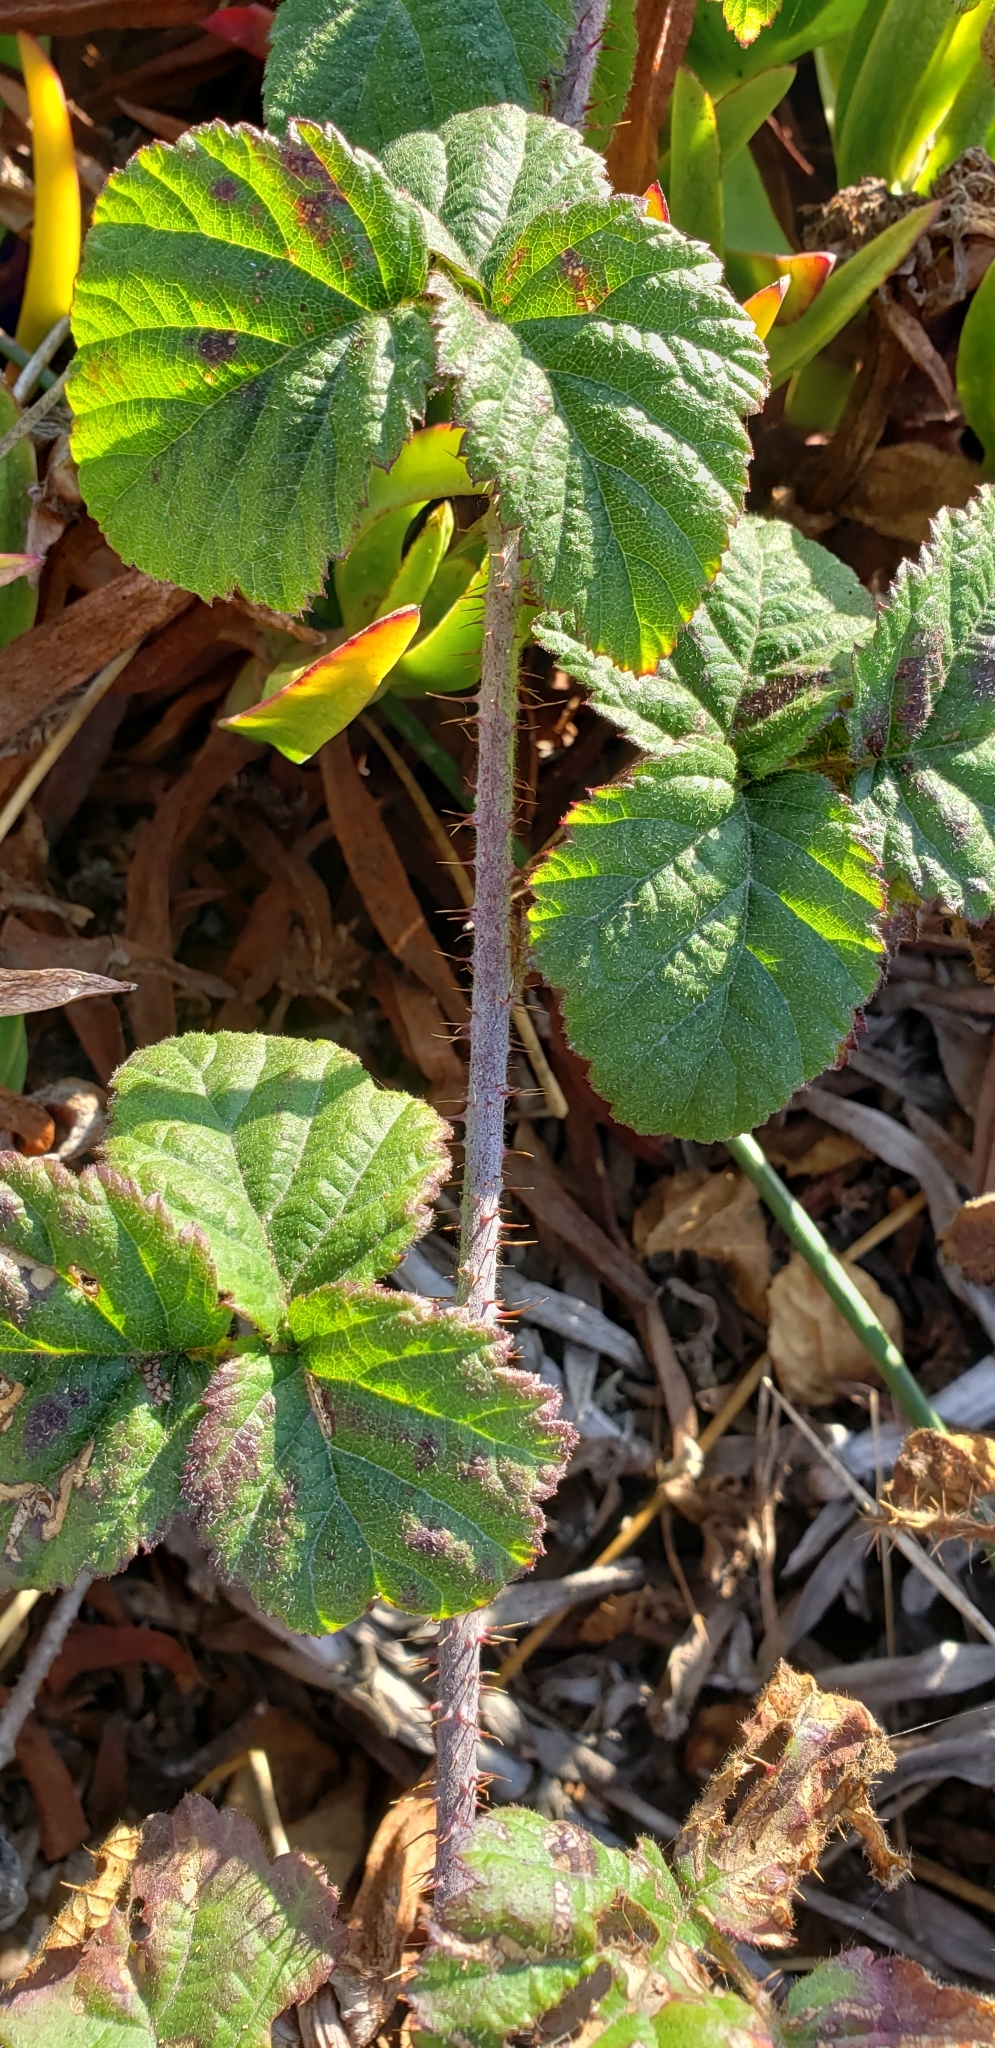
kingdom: Plantae
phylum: Tracheophyta
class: Magnoliopsida
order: Rosales
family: Rosaceae
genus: Rubus
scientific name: Rubus ursinus
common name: Pacific blackberry
